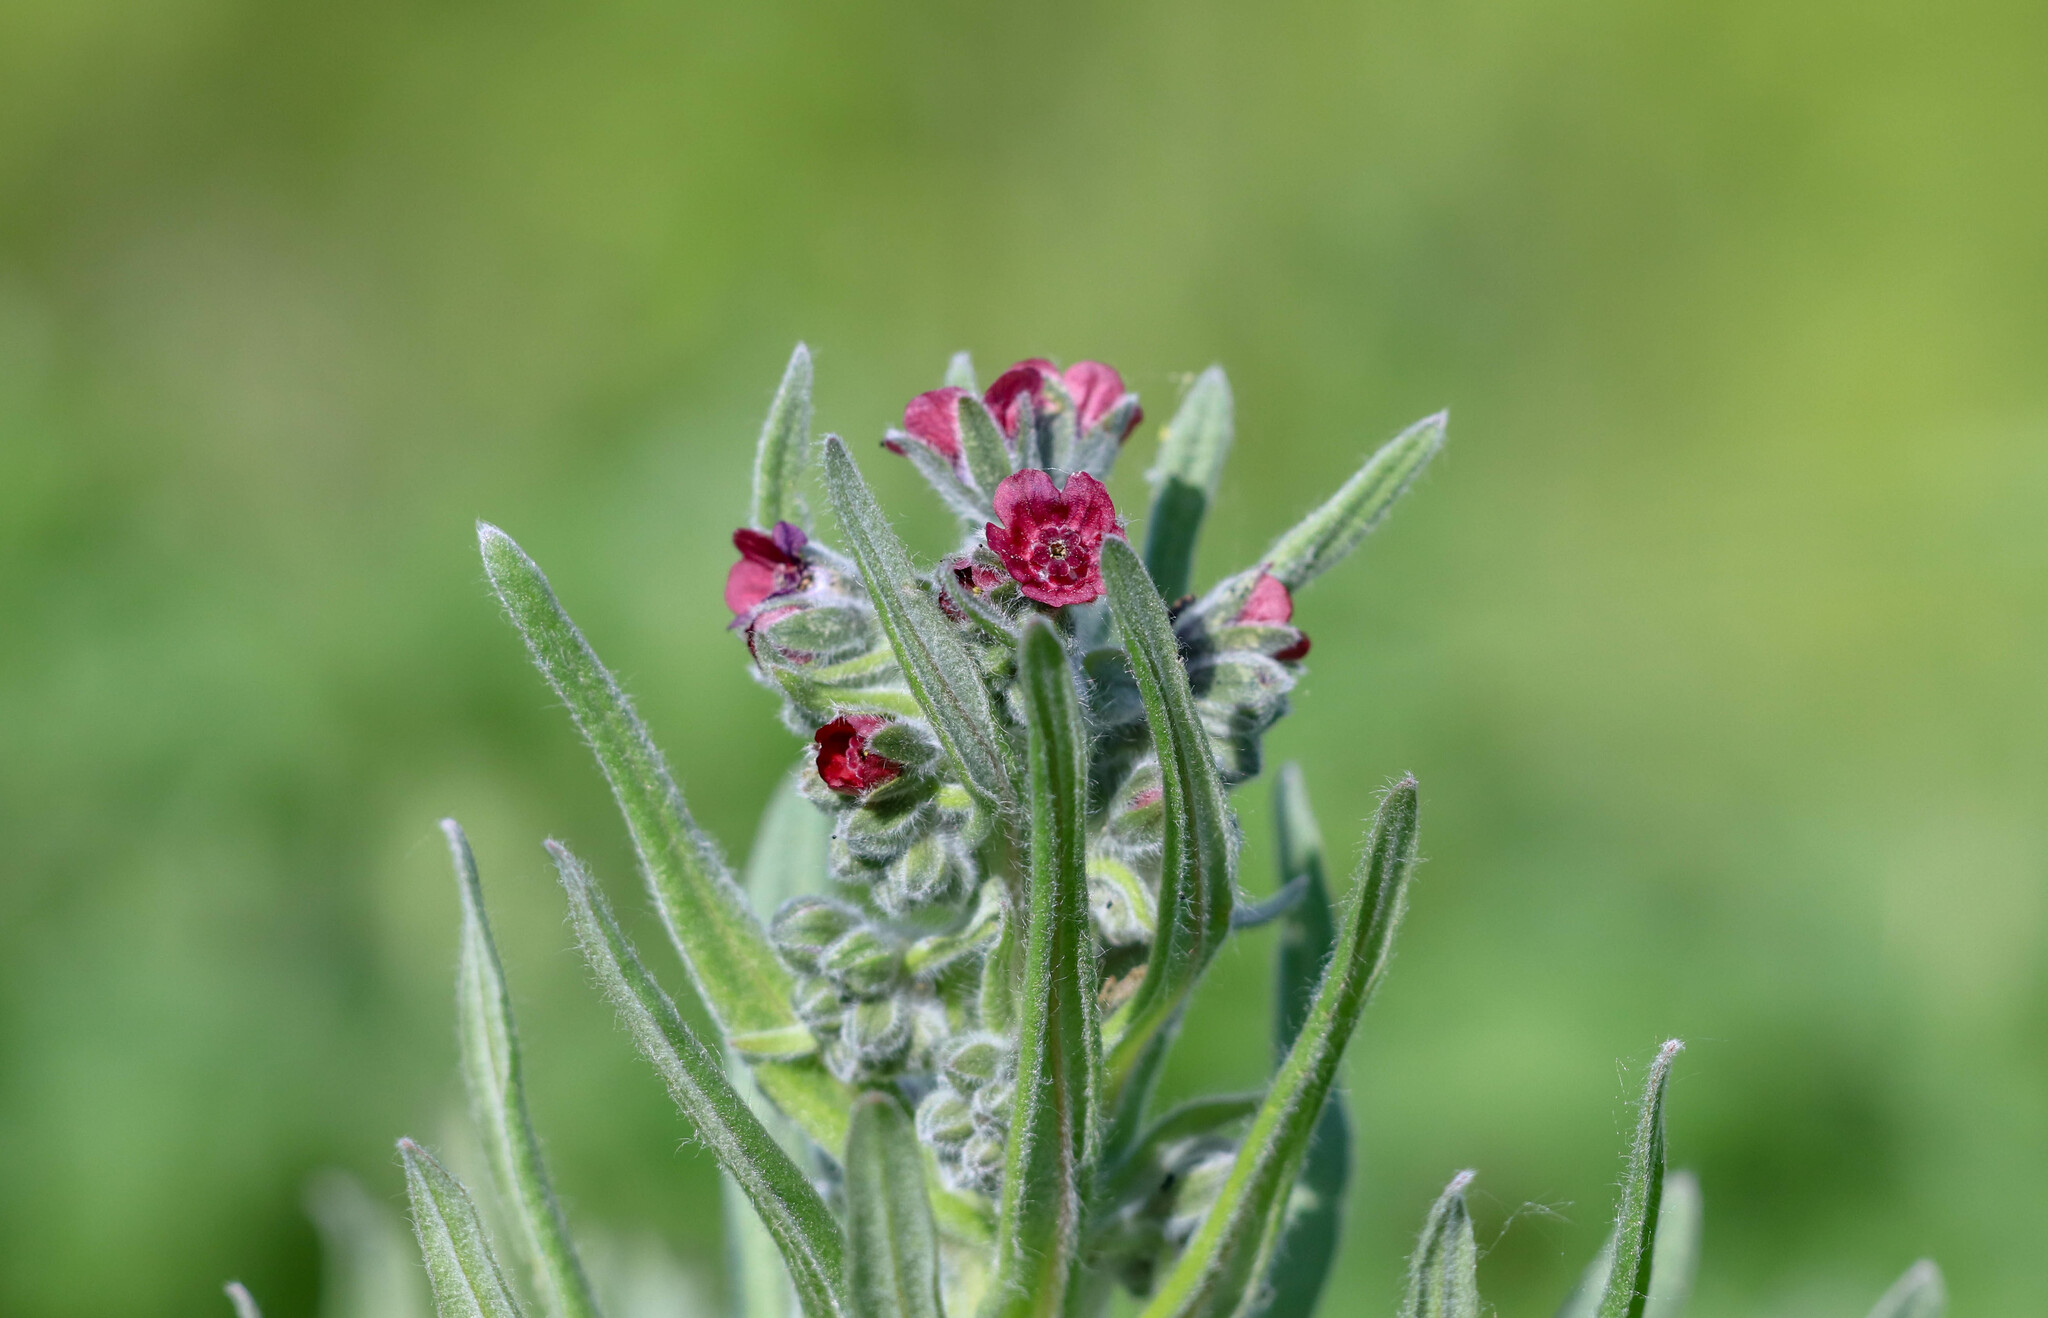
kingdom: Plantae
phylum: Tracheophyta
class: Magnoliopsida
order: Boraginales
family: Boraginaceae
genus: Cynoglossum
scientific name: Cynoglossum officinale
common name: Hound's-tongue
